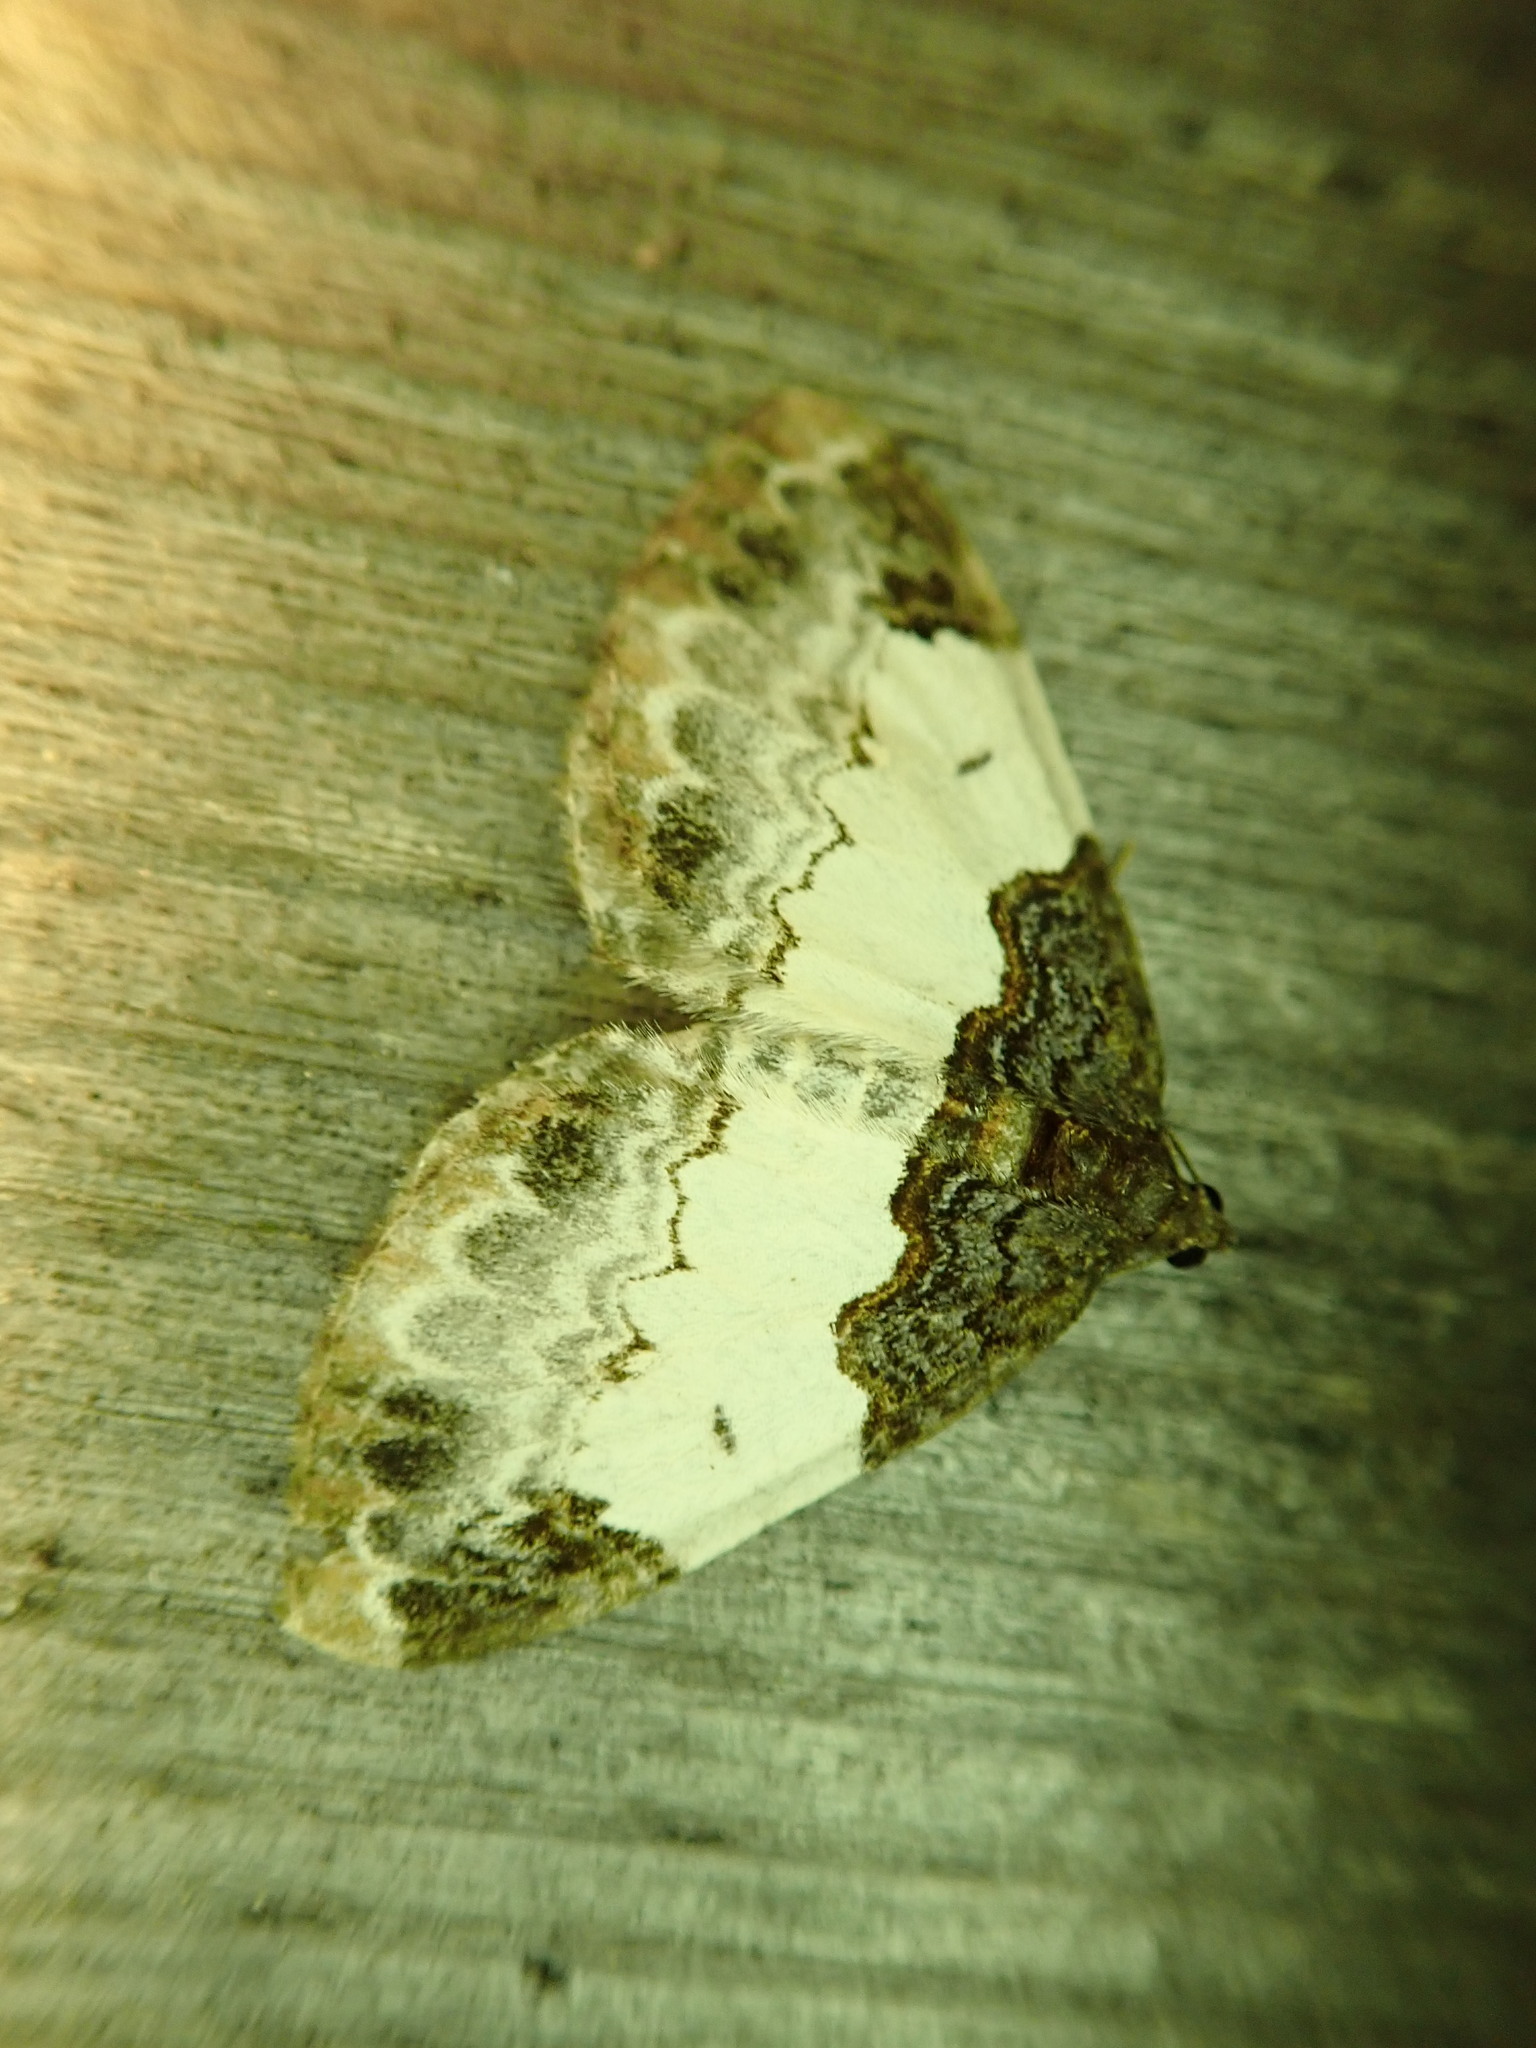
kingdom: Animalia
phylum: Arthropoda
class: Insecta
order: Lepidoptera
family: Geometridae
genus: Mesoleuca
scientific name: Mesoleuca ruficillata
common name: White-ribboned carpet moth
